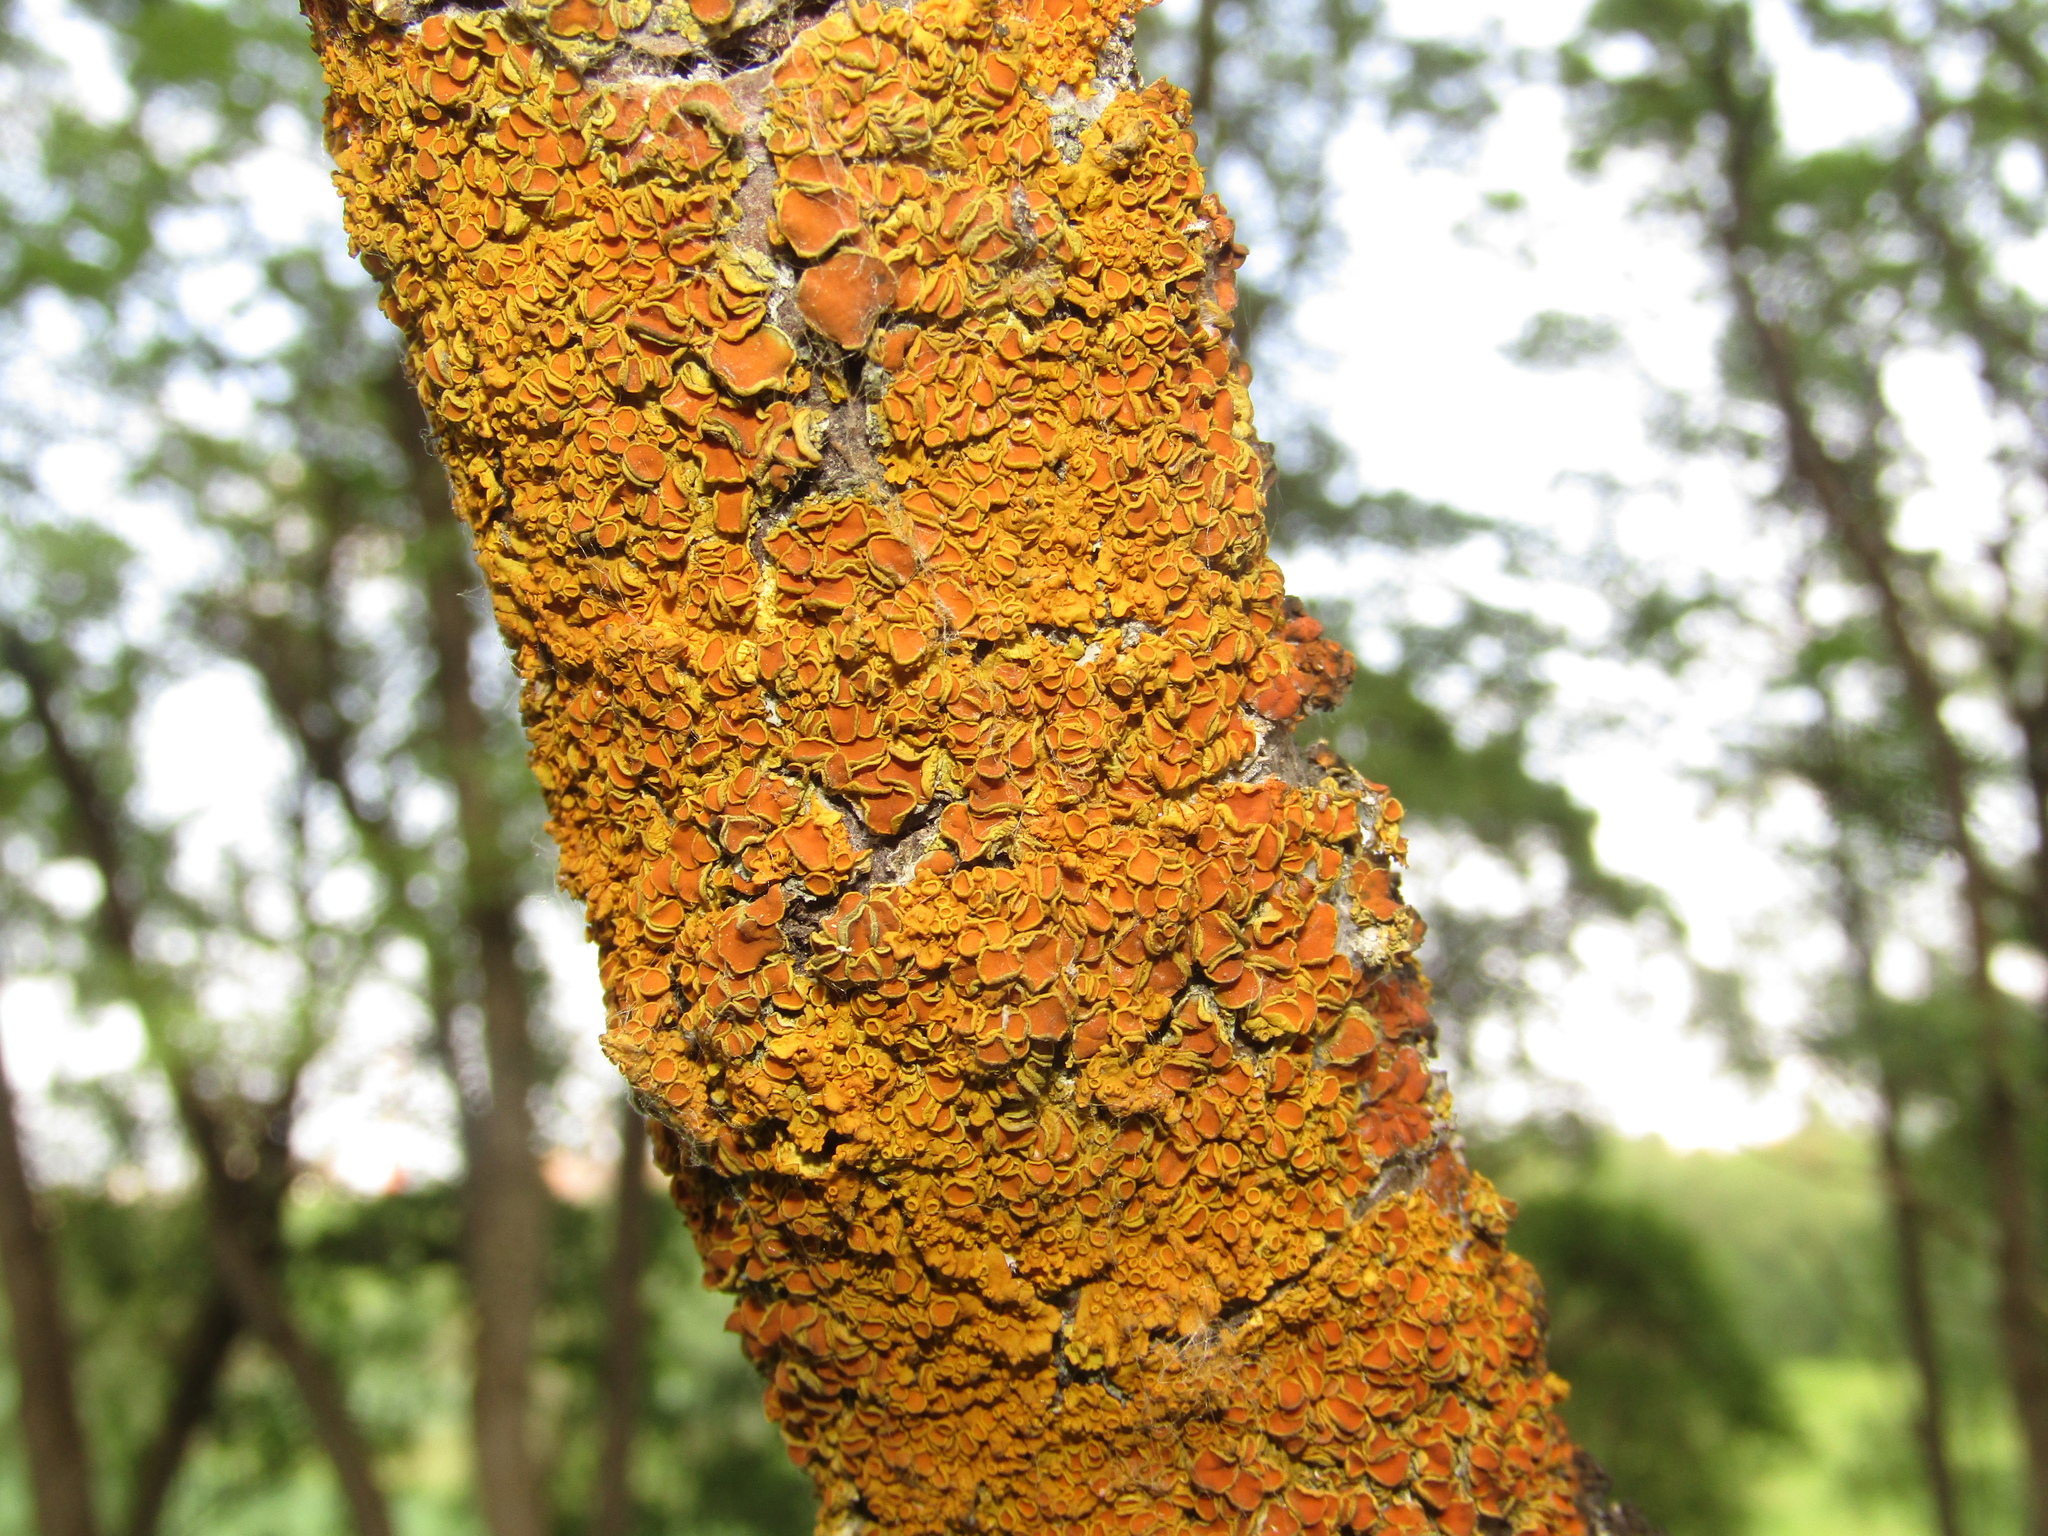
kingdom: Fungi
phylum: Ascomycota
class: Lecanoromycetes
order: Teloschistales
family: Teloschistaceae
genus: Xanthoria
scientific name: Xanthoria parietina
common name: Common orange lichen
